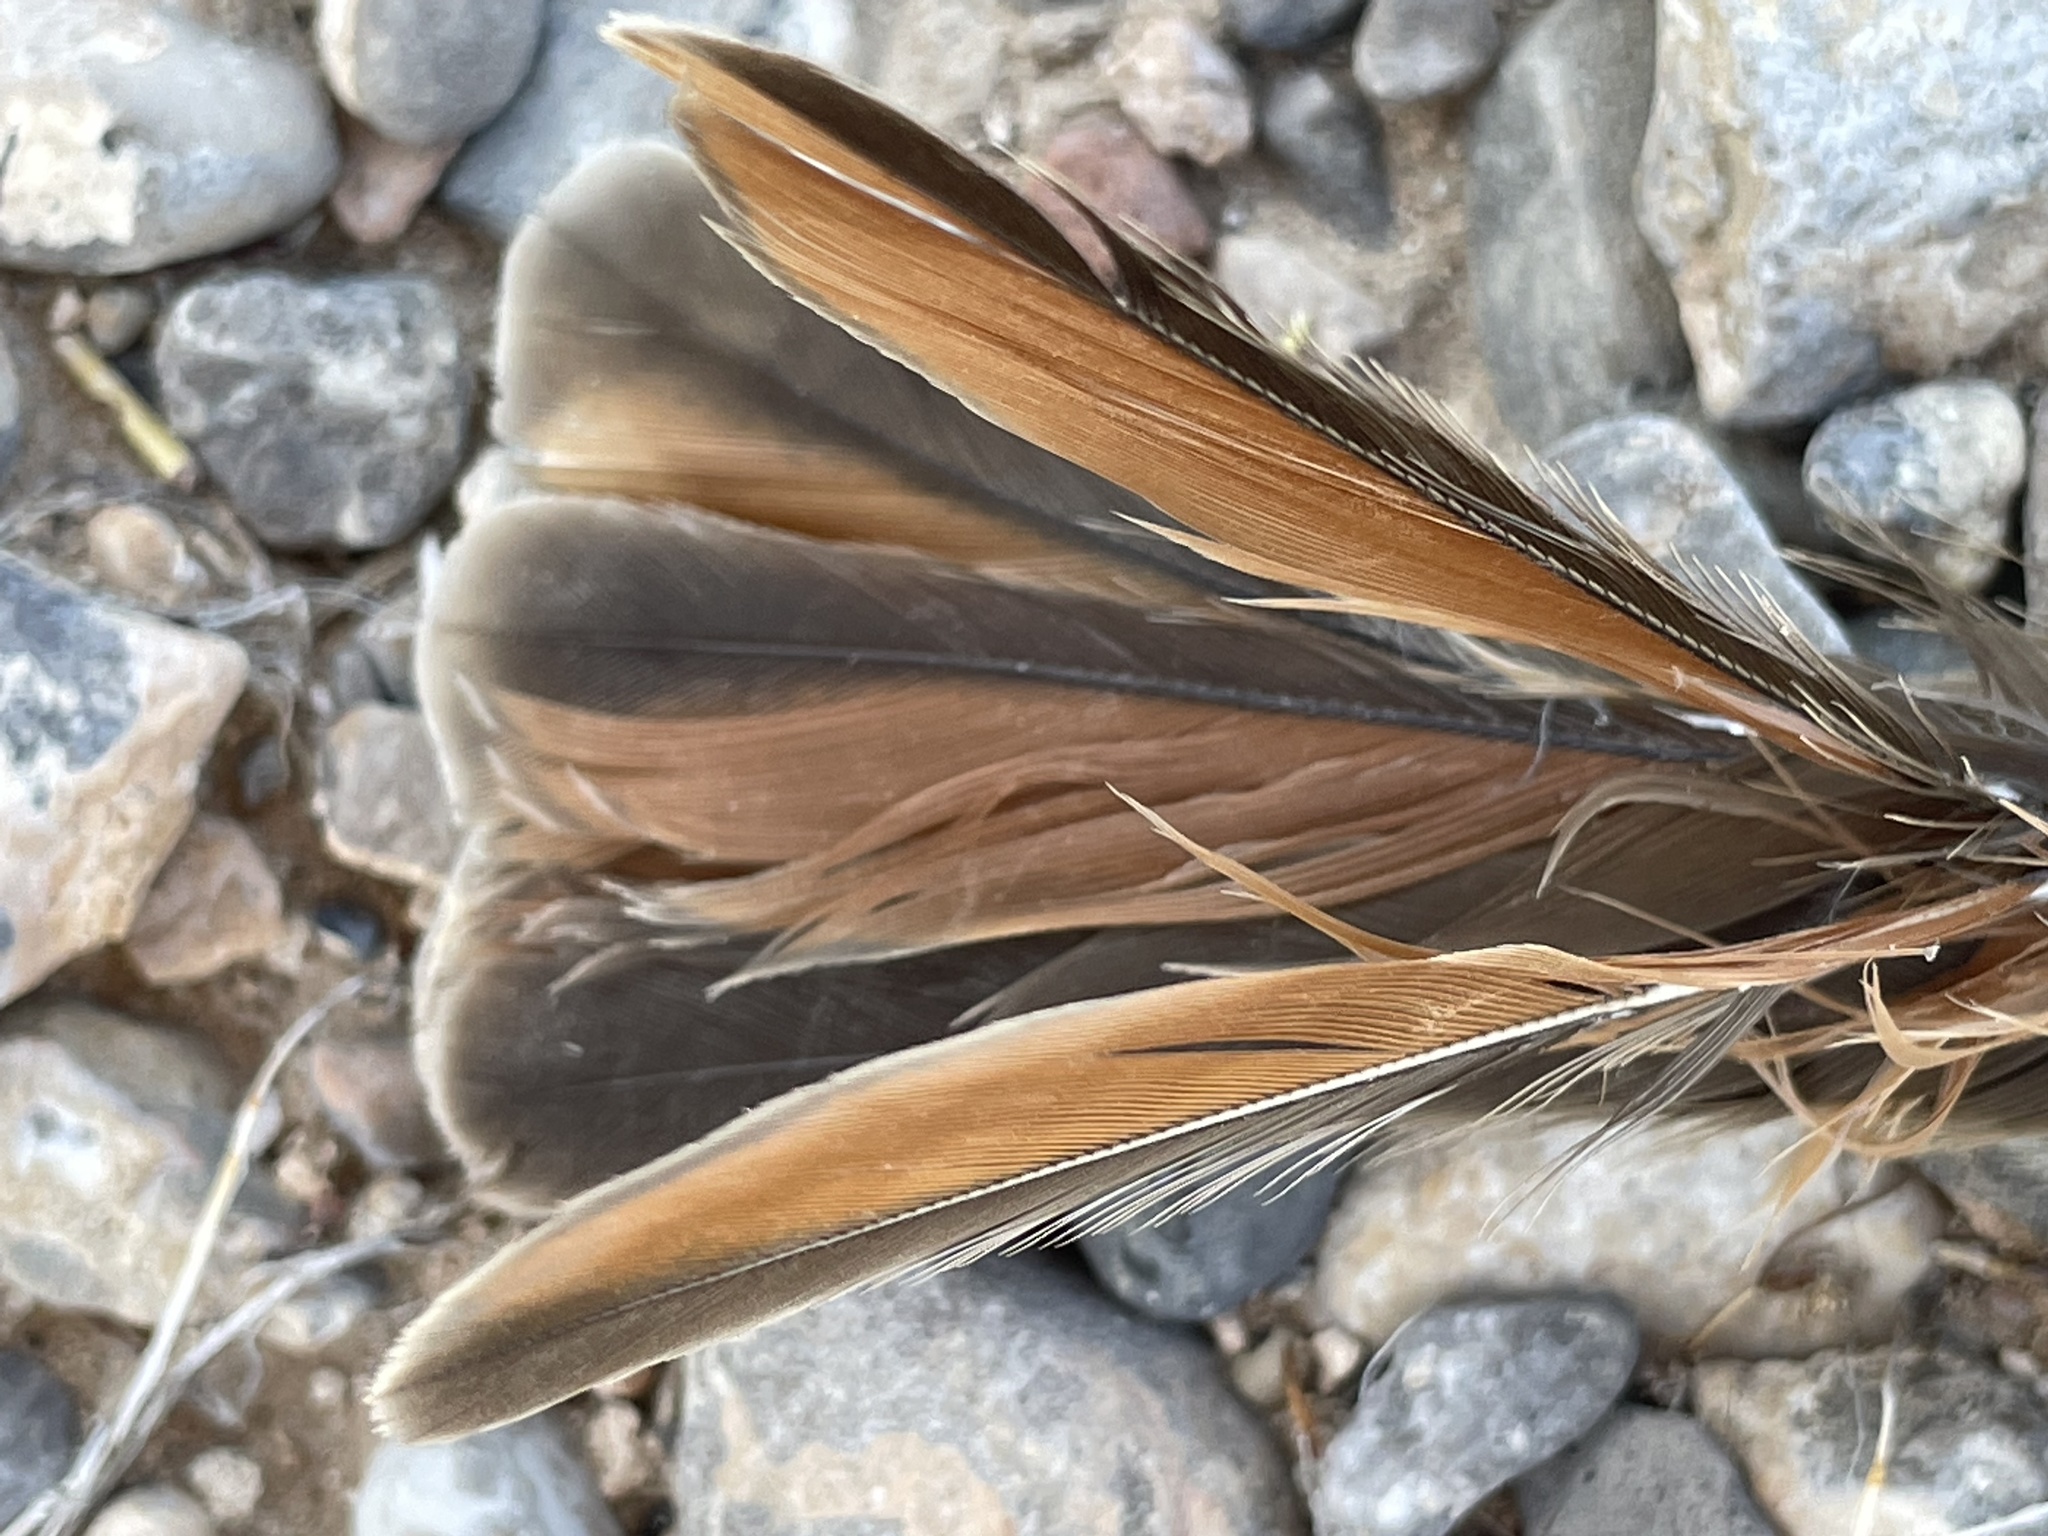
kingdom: Animalia
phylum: Chordata
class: Aves
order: Passeriformes
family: Tyrannidae
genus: Myiarchus
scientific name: Myiarchus cinerascens
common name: Ash-throated flycatcher
